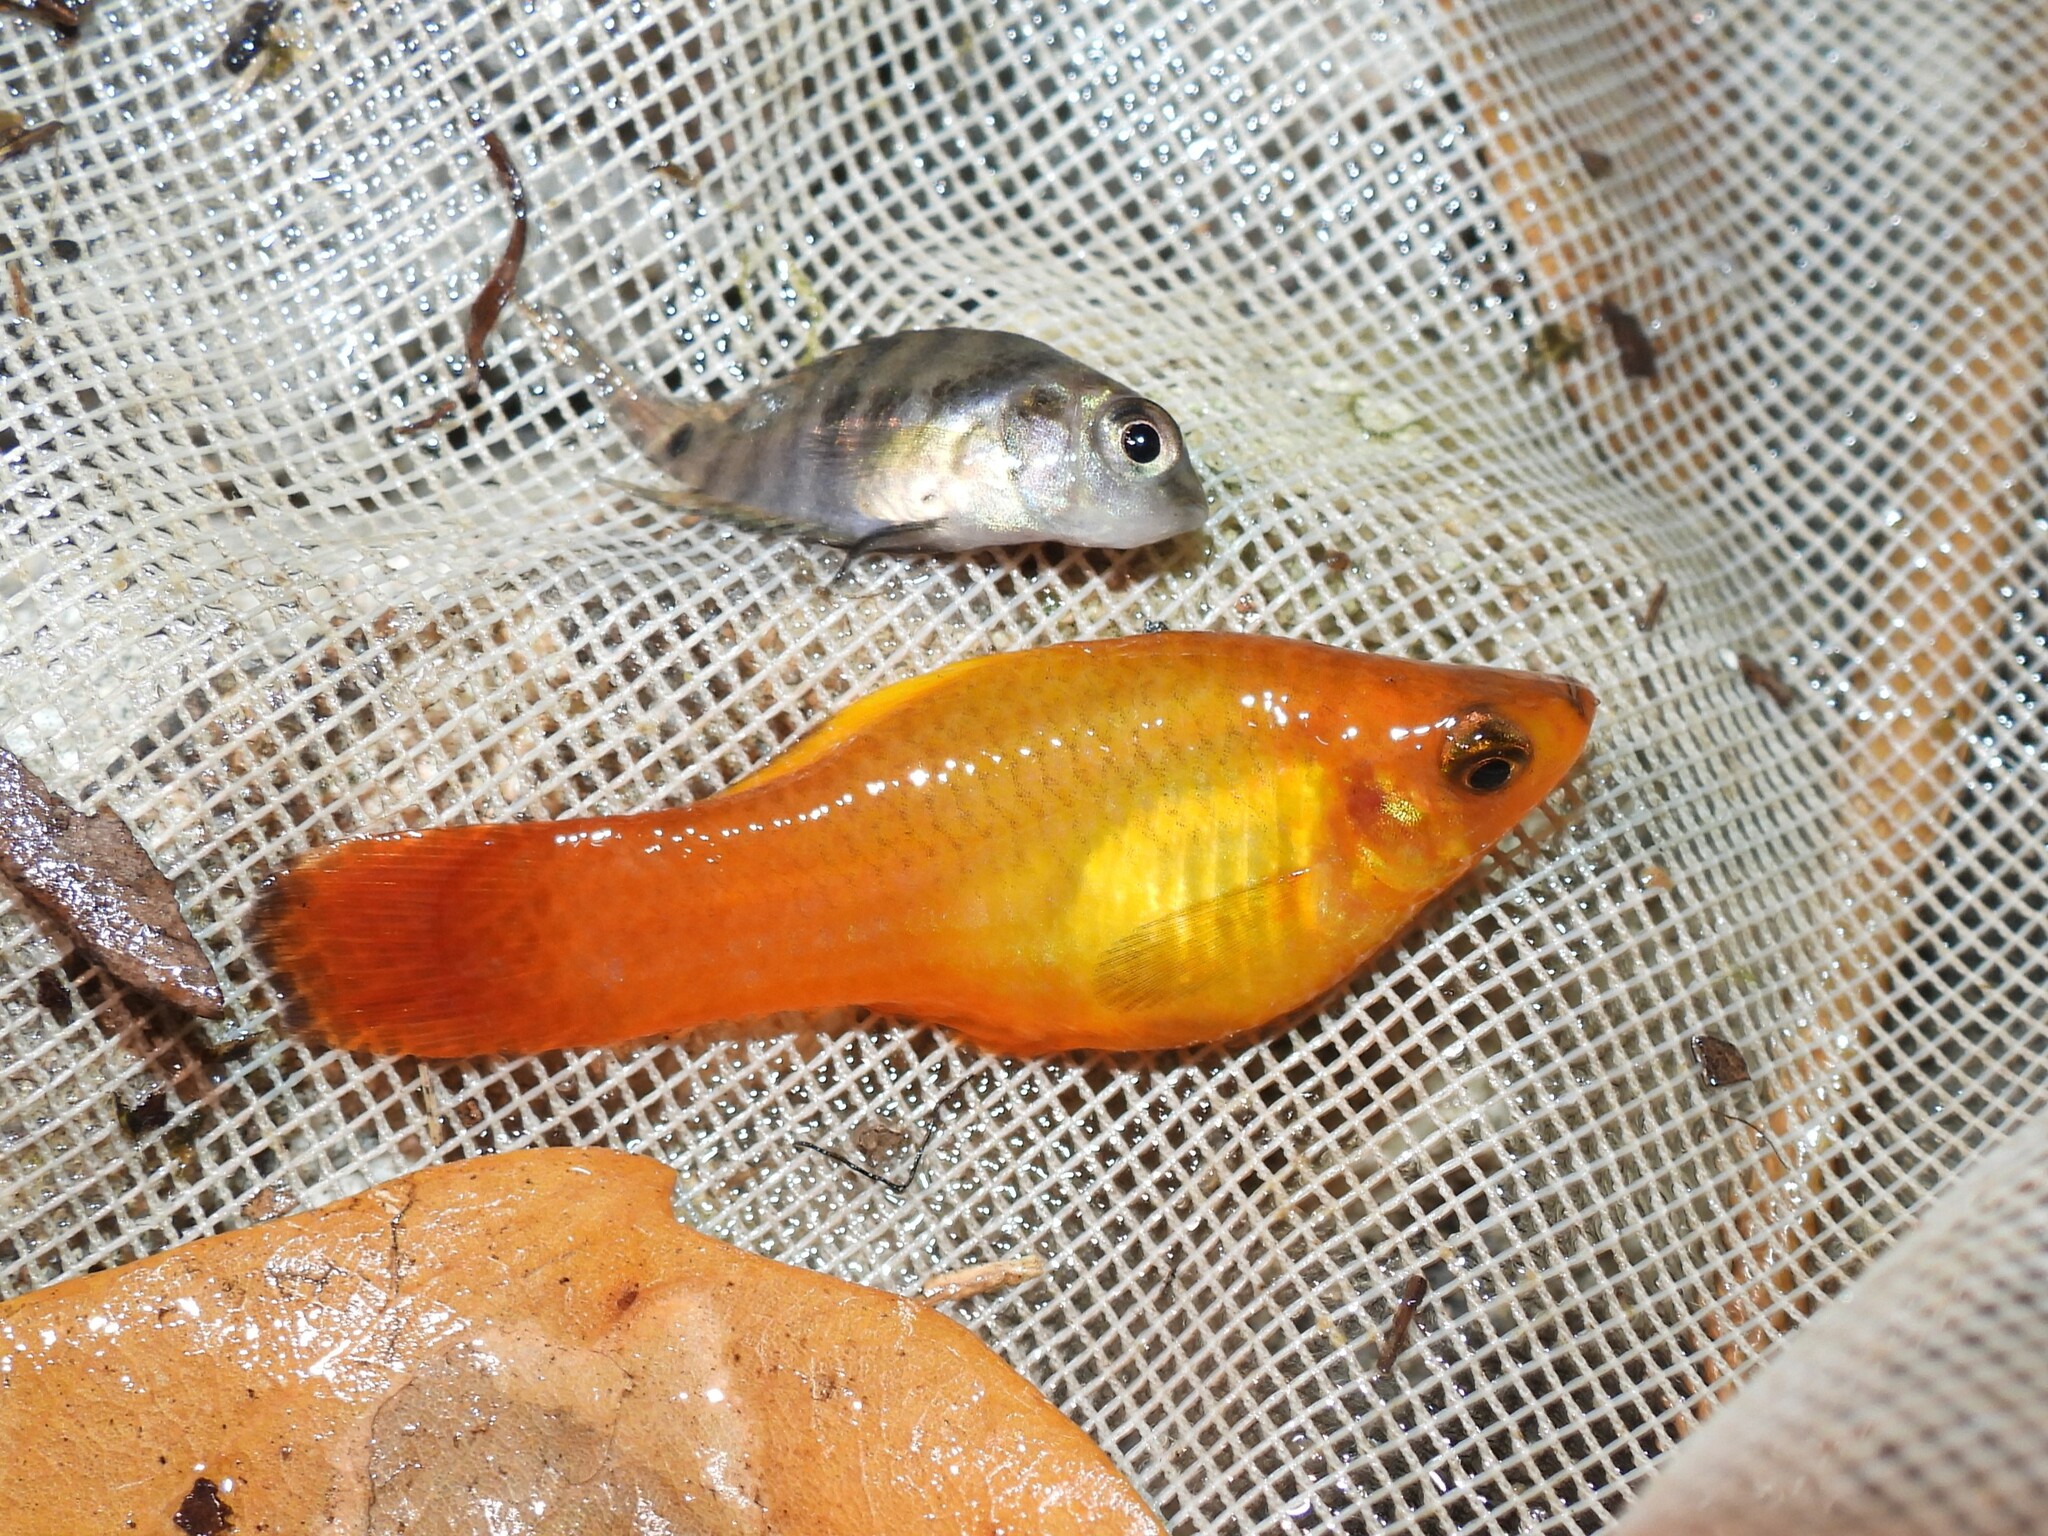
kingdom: Animalia
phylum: Chordata
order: Cyprinodontiformes
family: Poeciliidae
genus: Xiphophorus
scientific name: Xiphophorus variatus
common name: Variable platyfish
